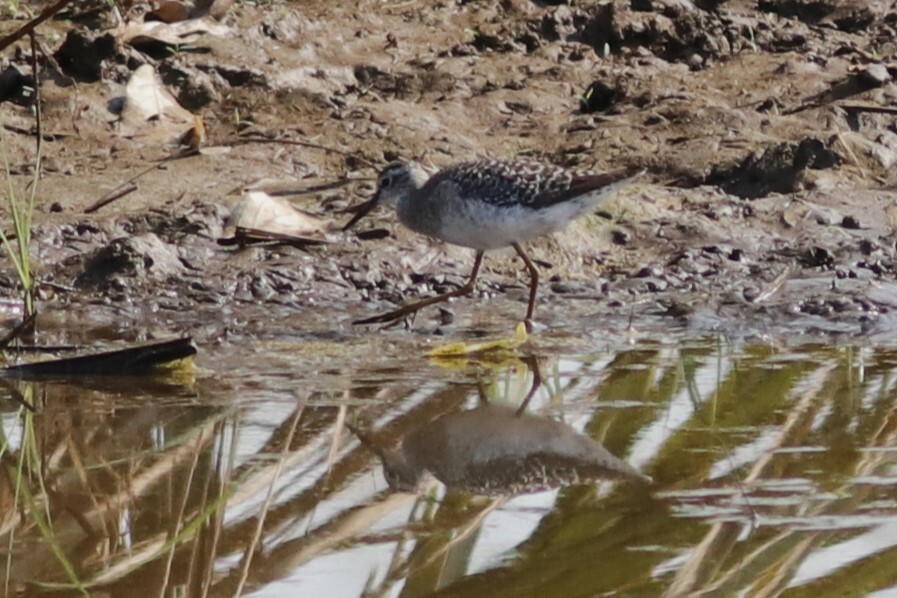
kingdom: Animalia
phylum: Chordata
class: Aves
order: Charadriiformes
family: Scolopacidae
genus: Tringa
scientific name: Tringa glareola
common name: Wood sandpiper
